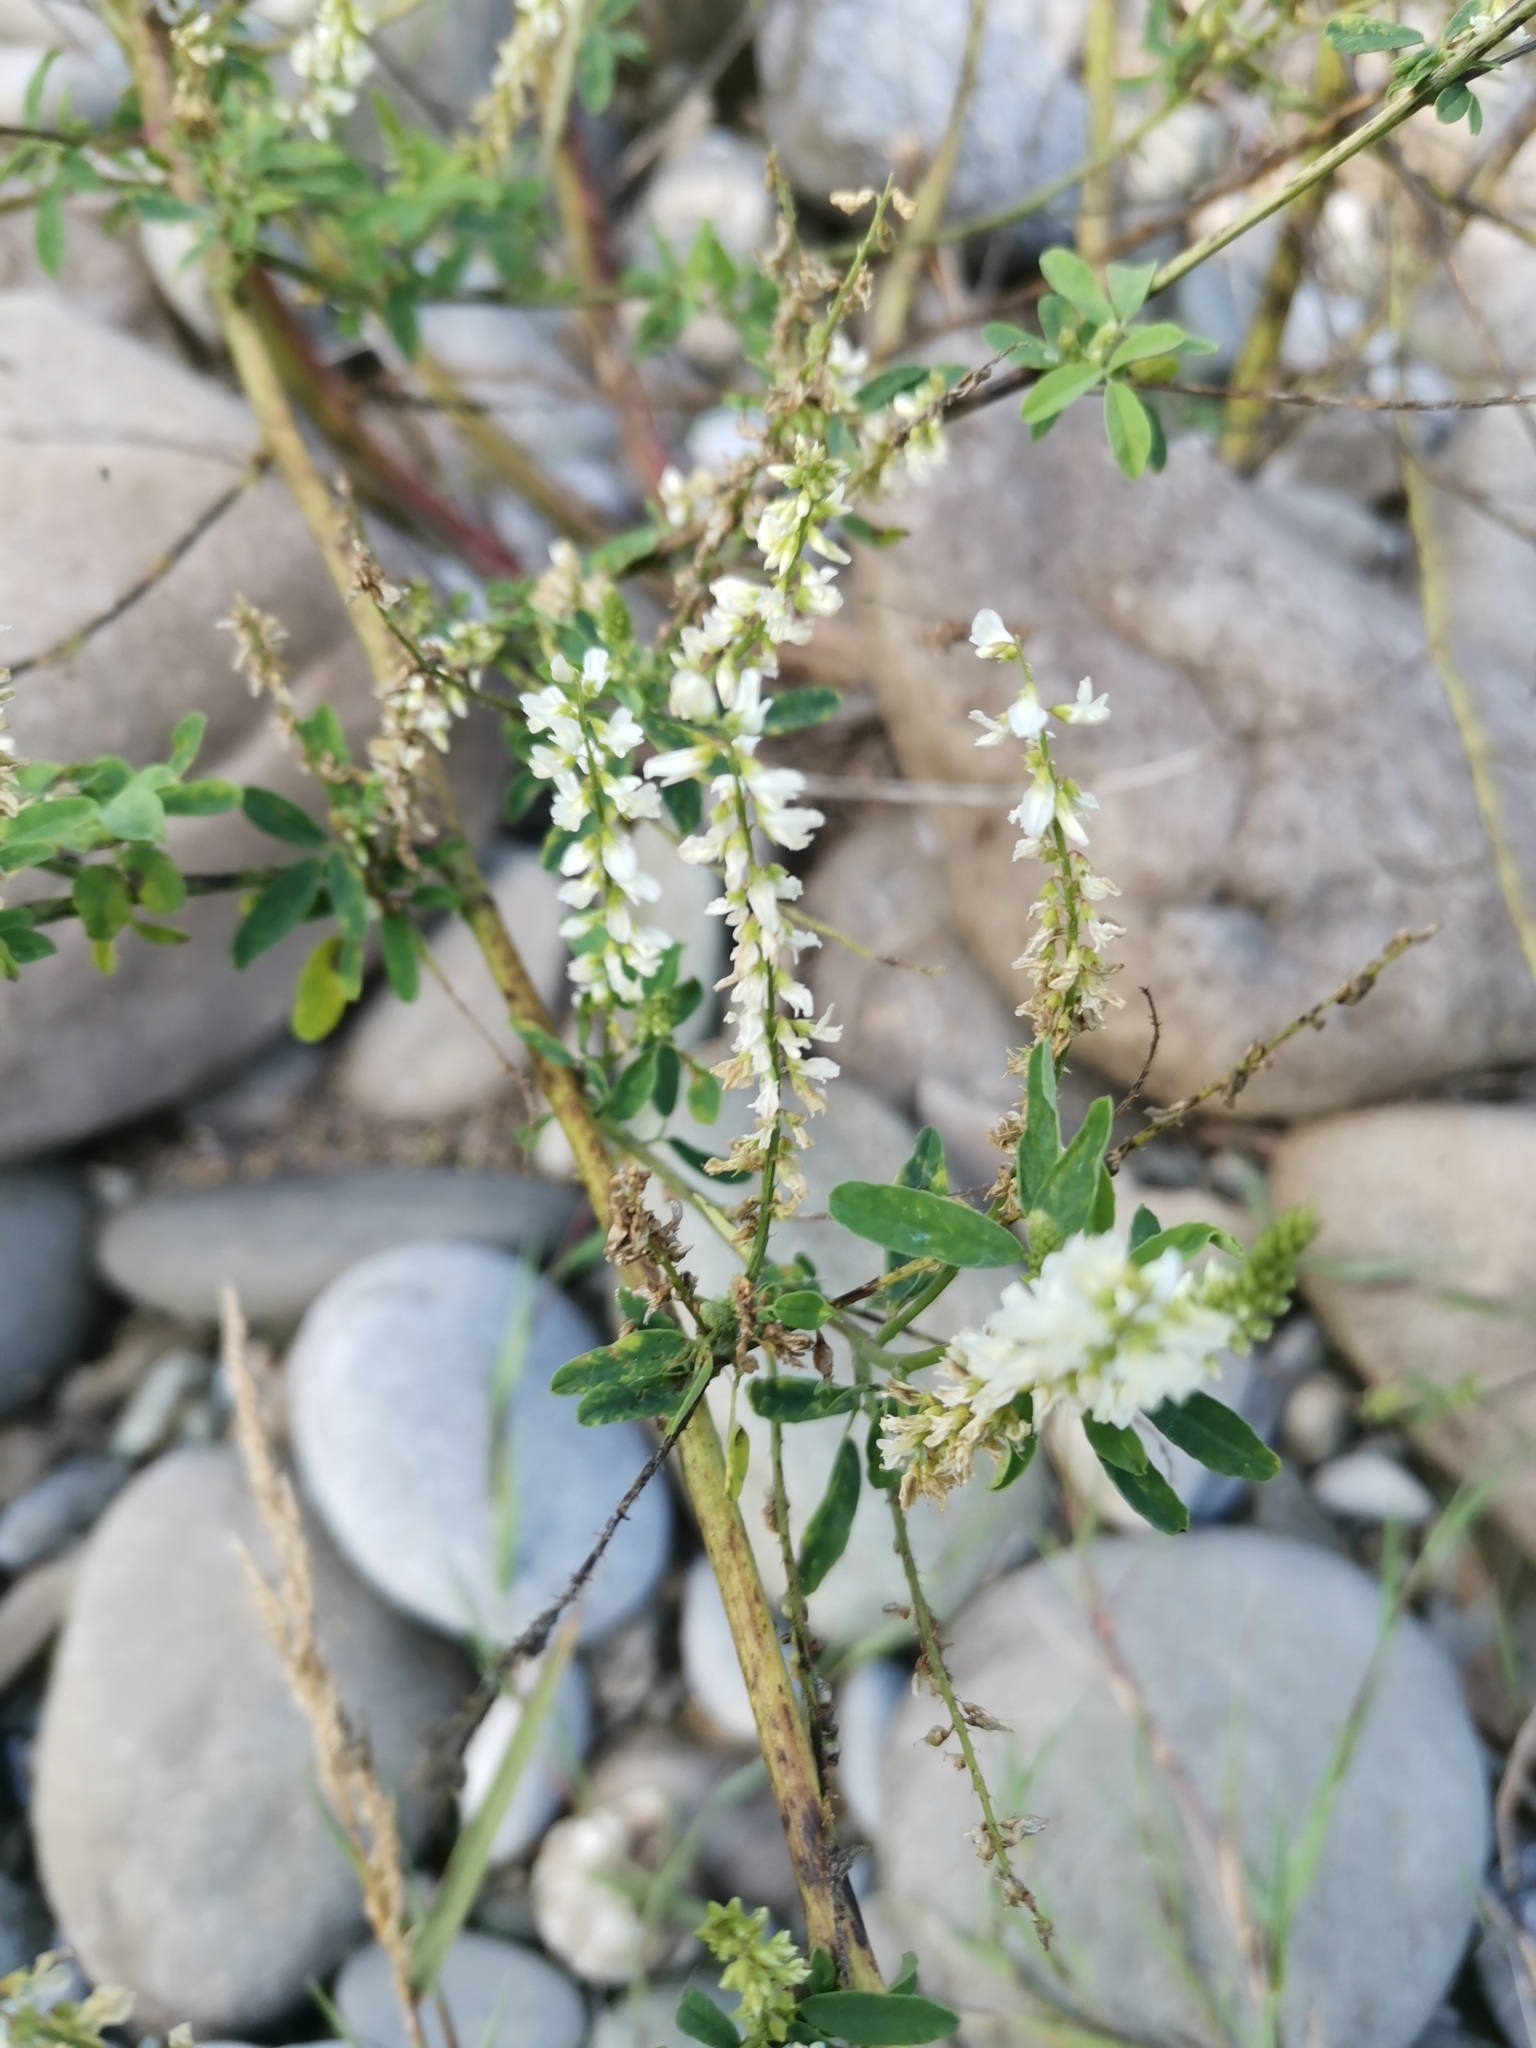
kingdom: Plantae
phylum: Tracheophyta
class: Magnoliopsida
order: Fabales
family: Fabaceae
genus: Melilotus
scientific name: Melilotus albus
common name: White melilot
